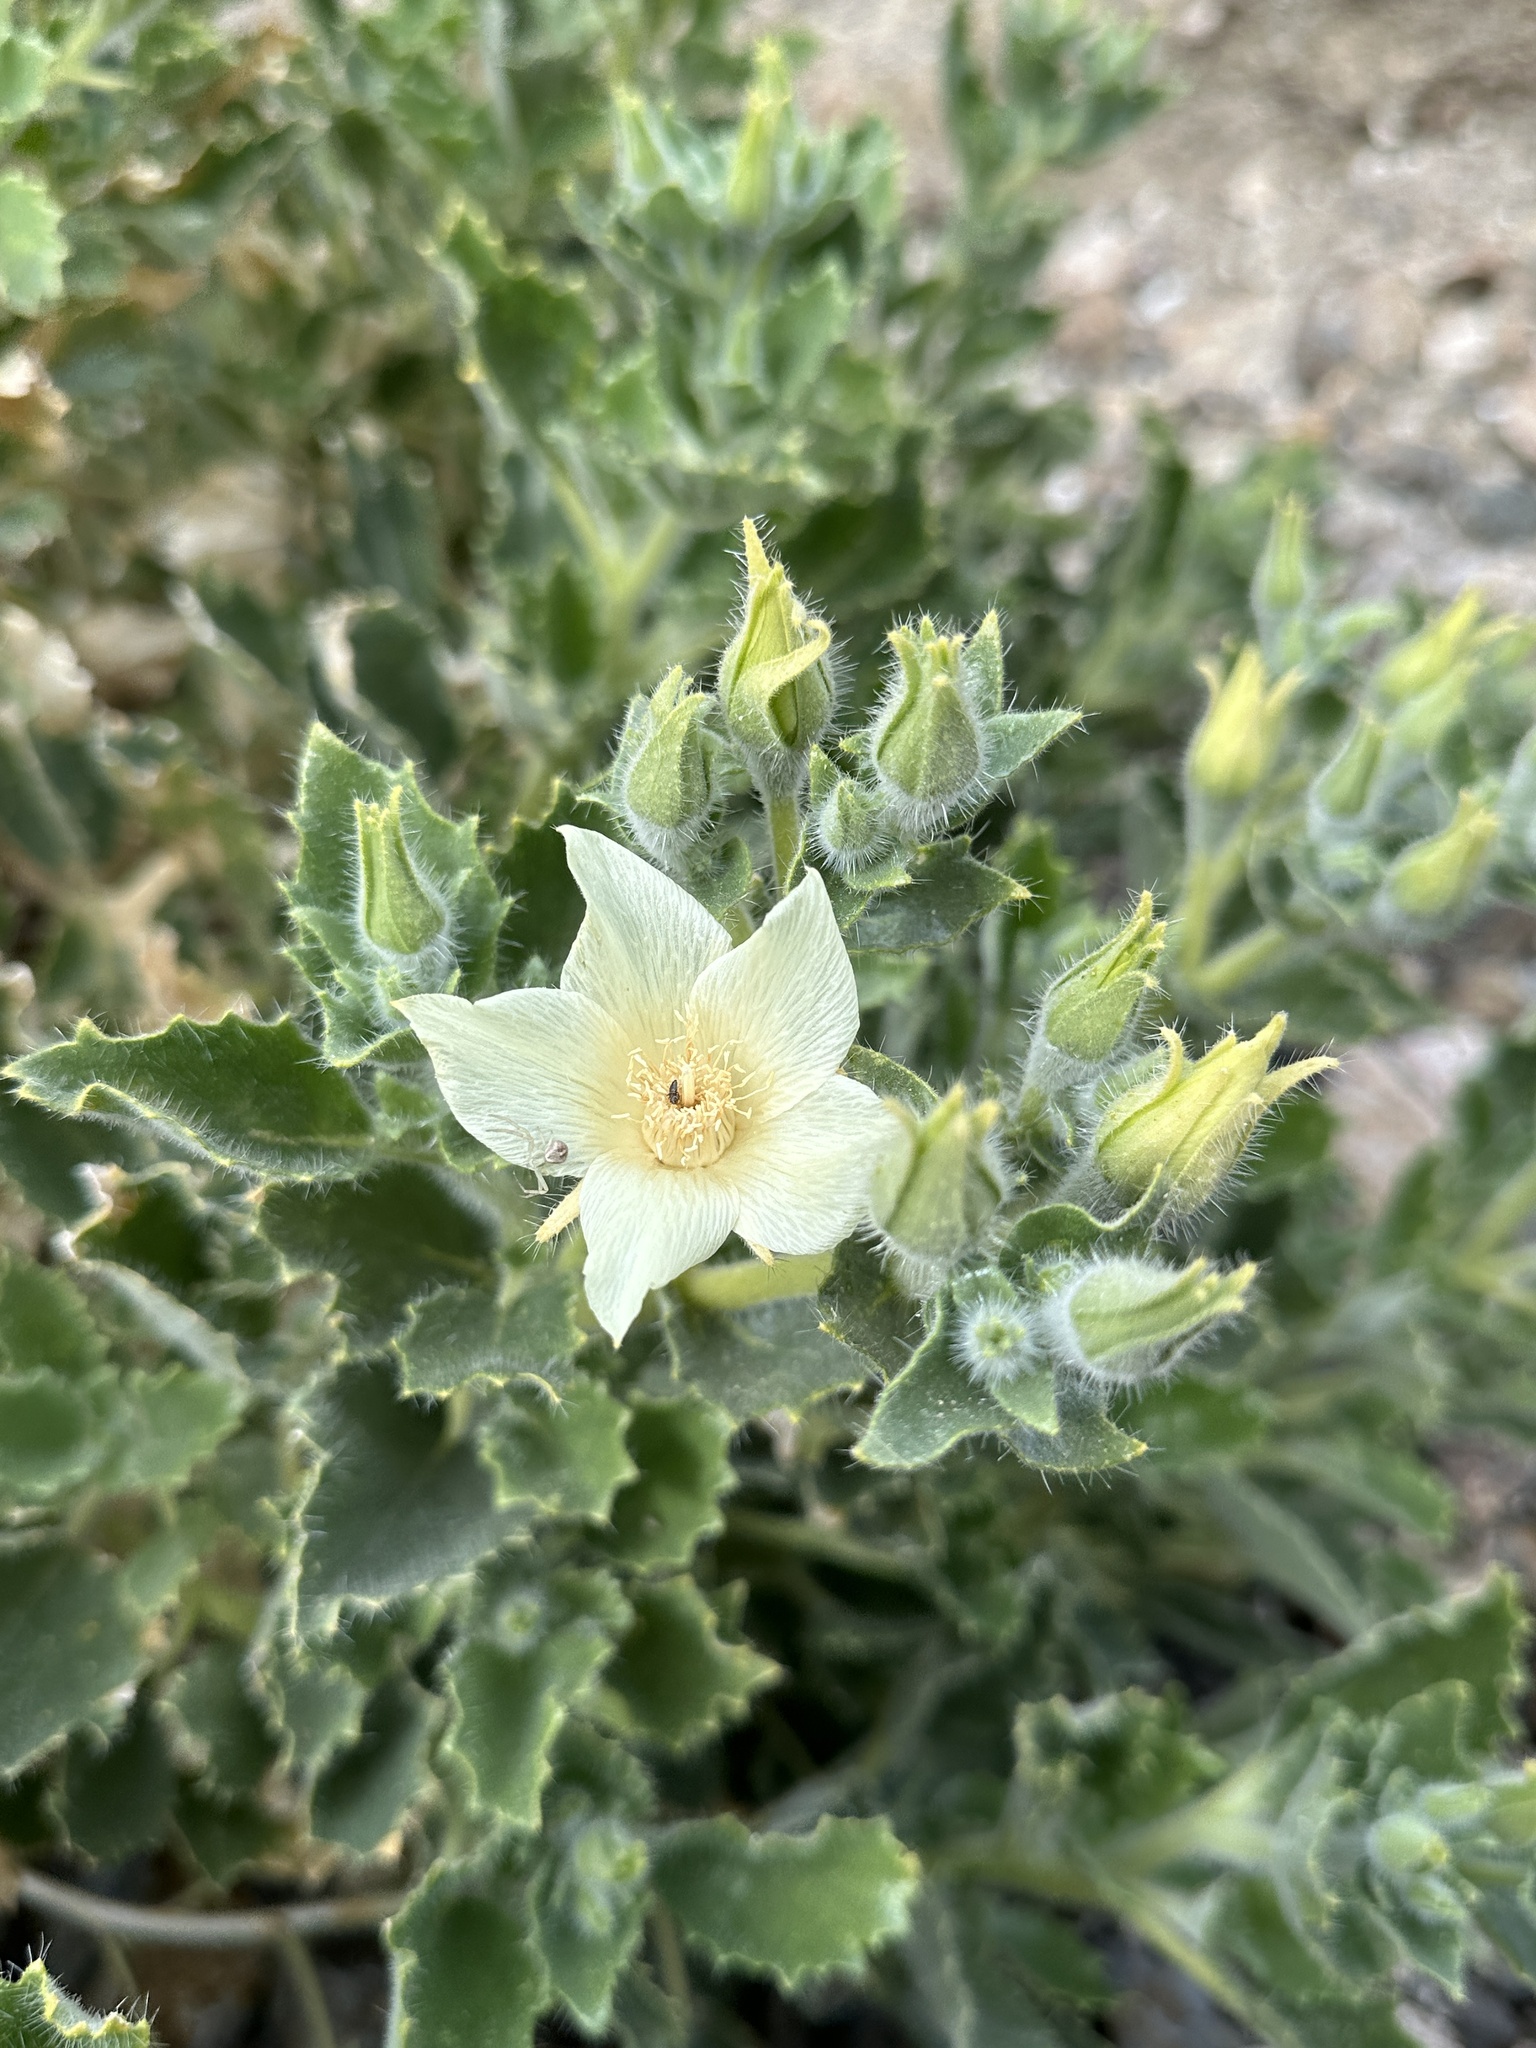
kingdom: Plantae
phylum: Tracheophyta
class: Magnoliopsida
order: Cornales
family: Loasaceae
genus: Eucnide
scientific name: Eucnide urens
